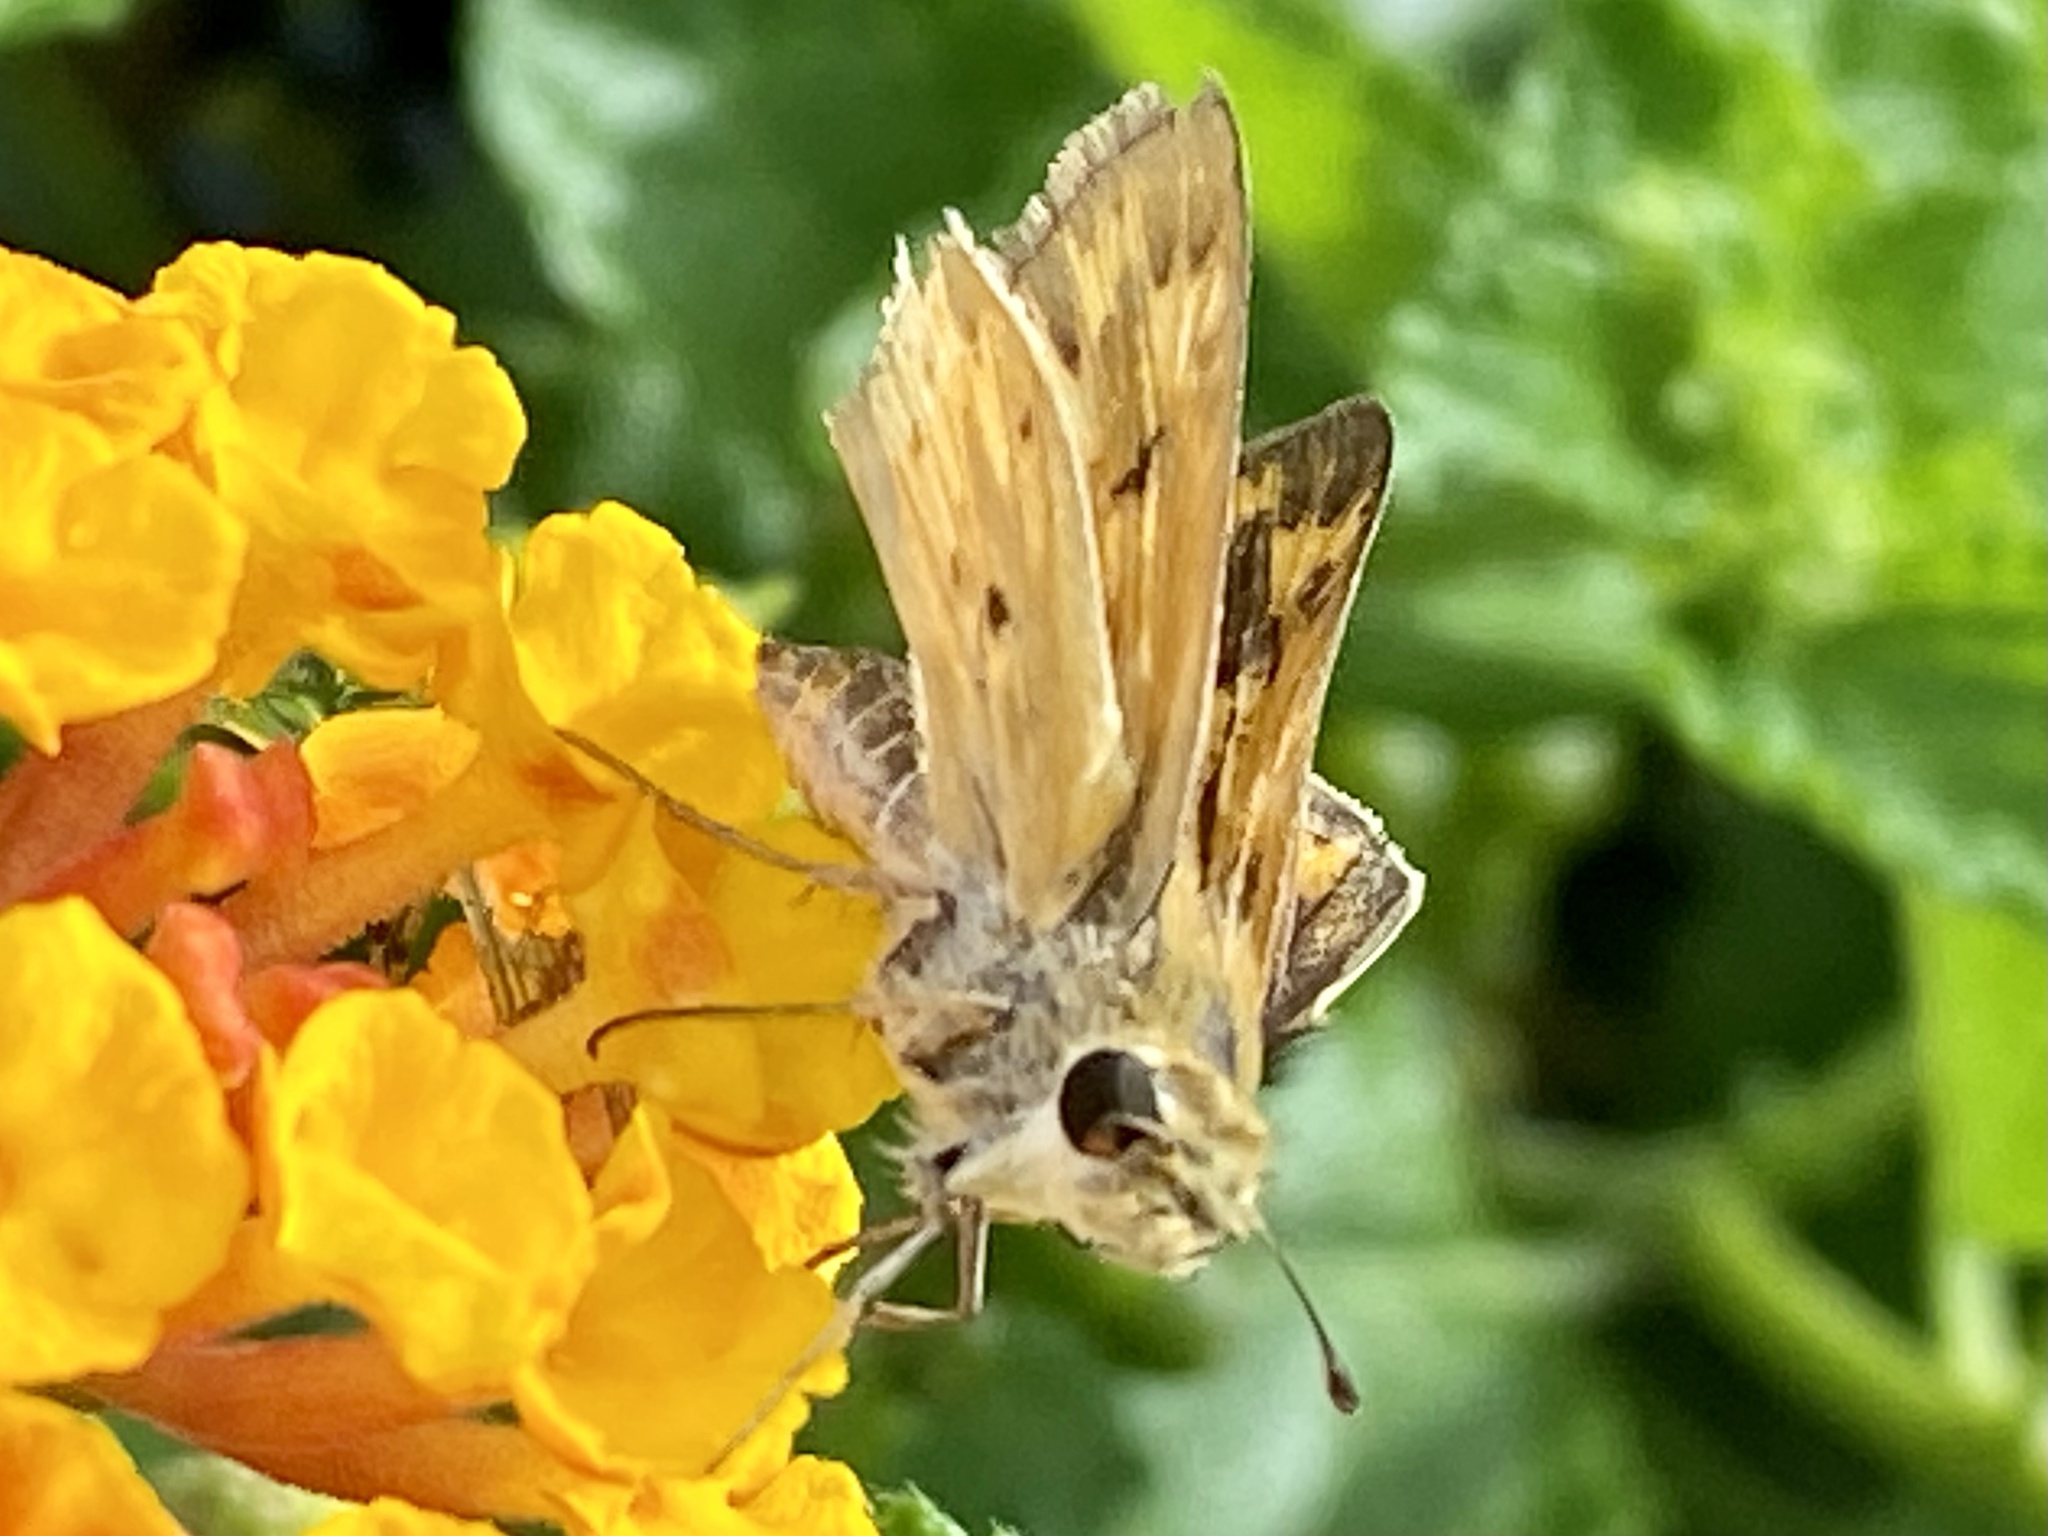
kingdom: Animalia
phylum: Arthropoda
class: Insecta
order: Lepidoptera
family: Hesperiidae
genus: Hylephila
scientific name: Hylephila phyleus
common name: Fiery skipper
